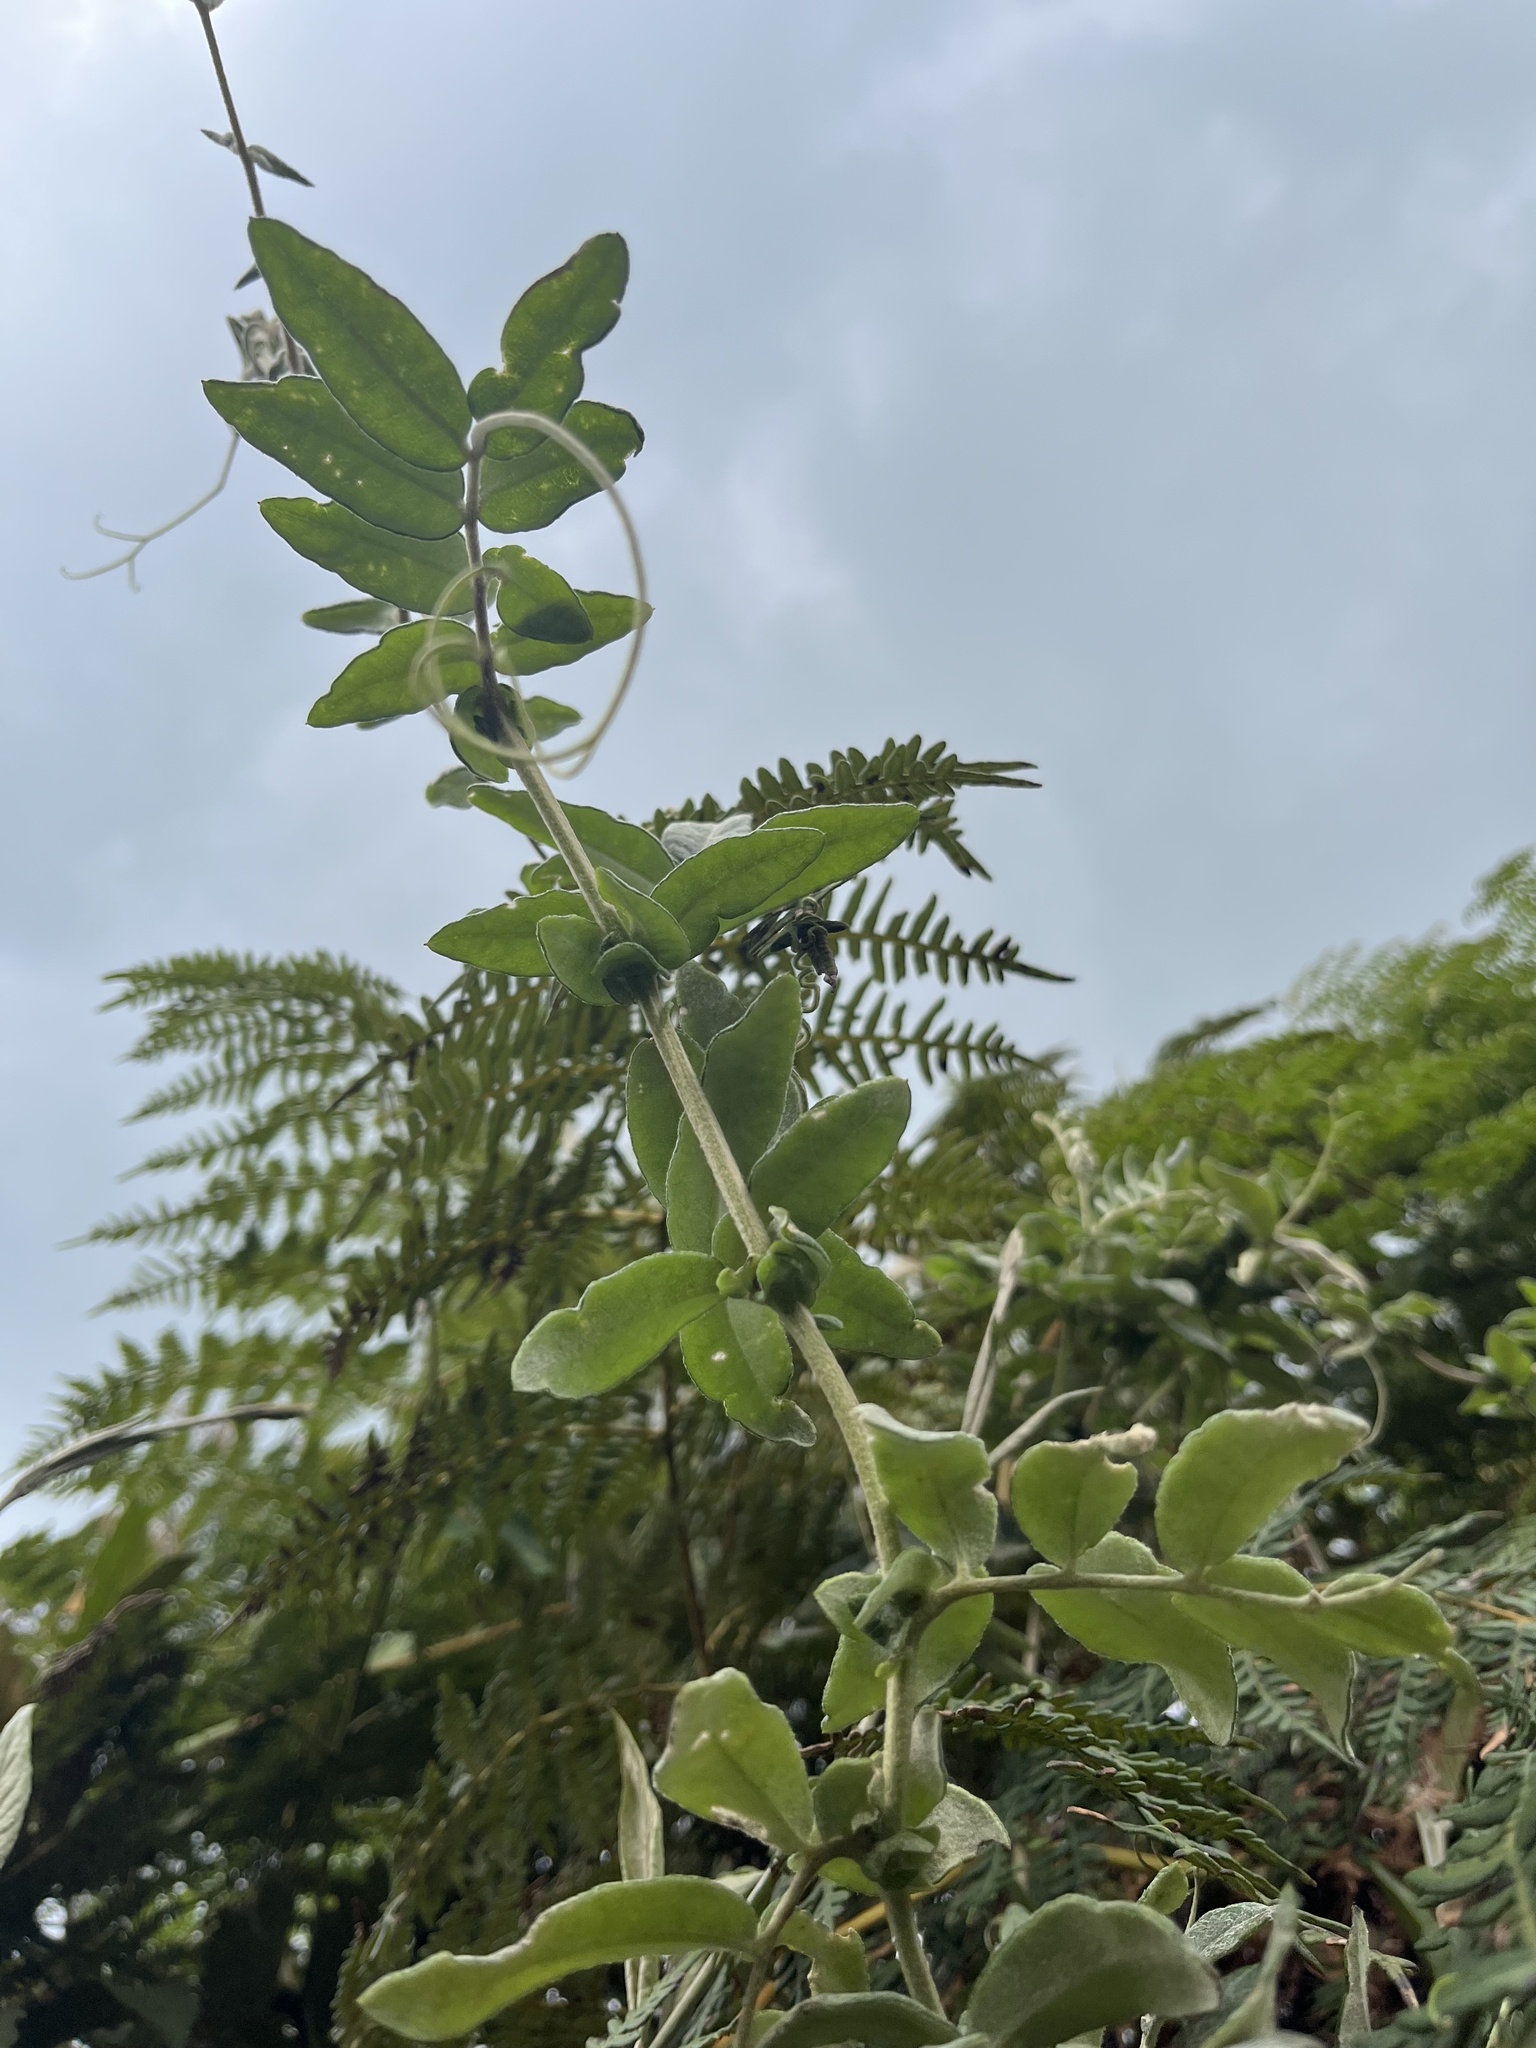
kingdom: Plantae
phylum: Tracheophyta
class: Magnoliopsida
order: Asterales
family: Asteraceae
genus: Mutisia
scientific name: Mutisia clematis
